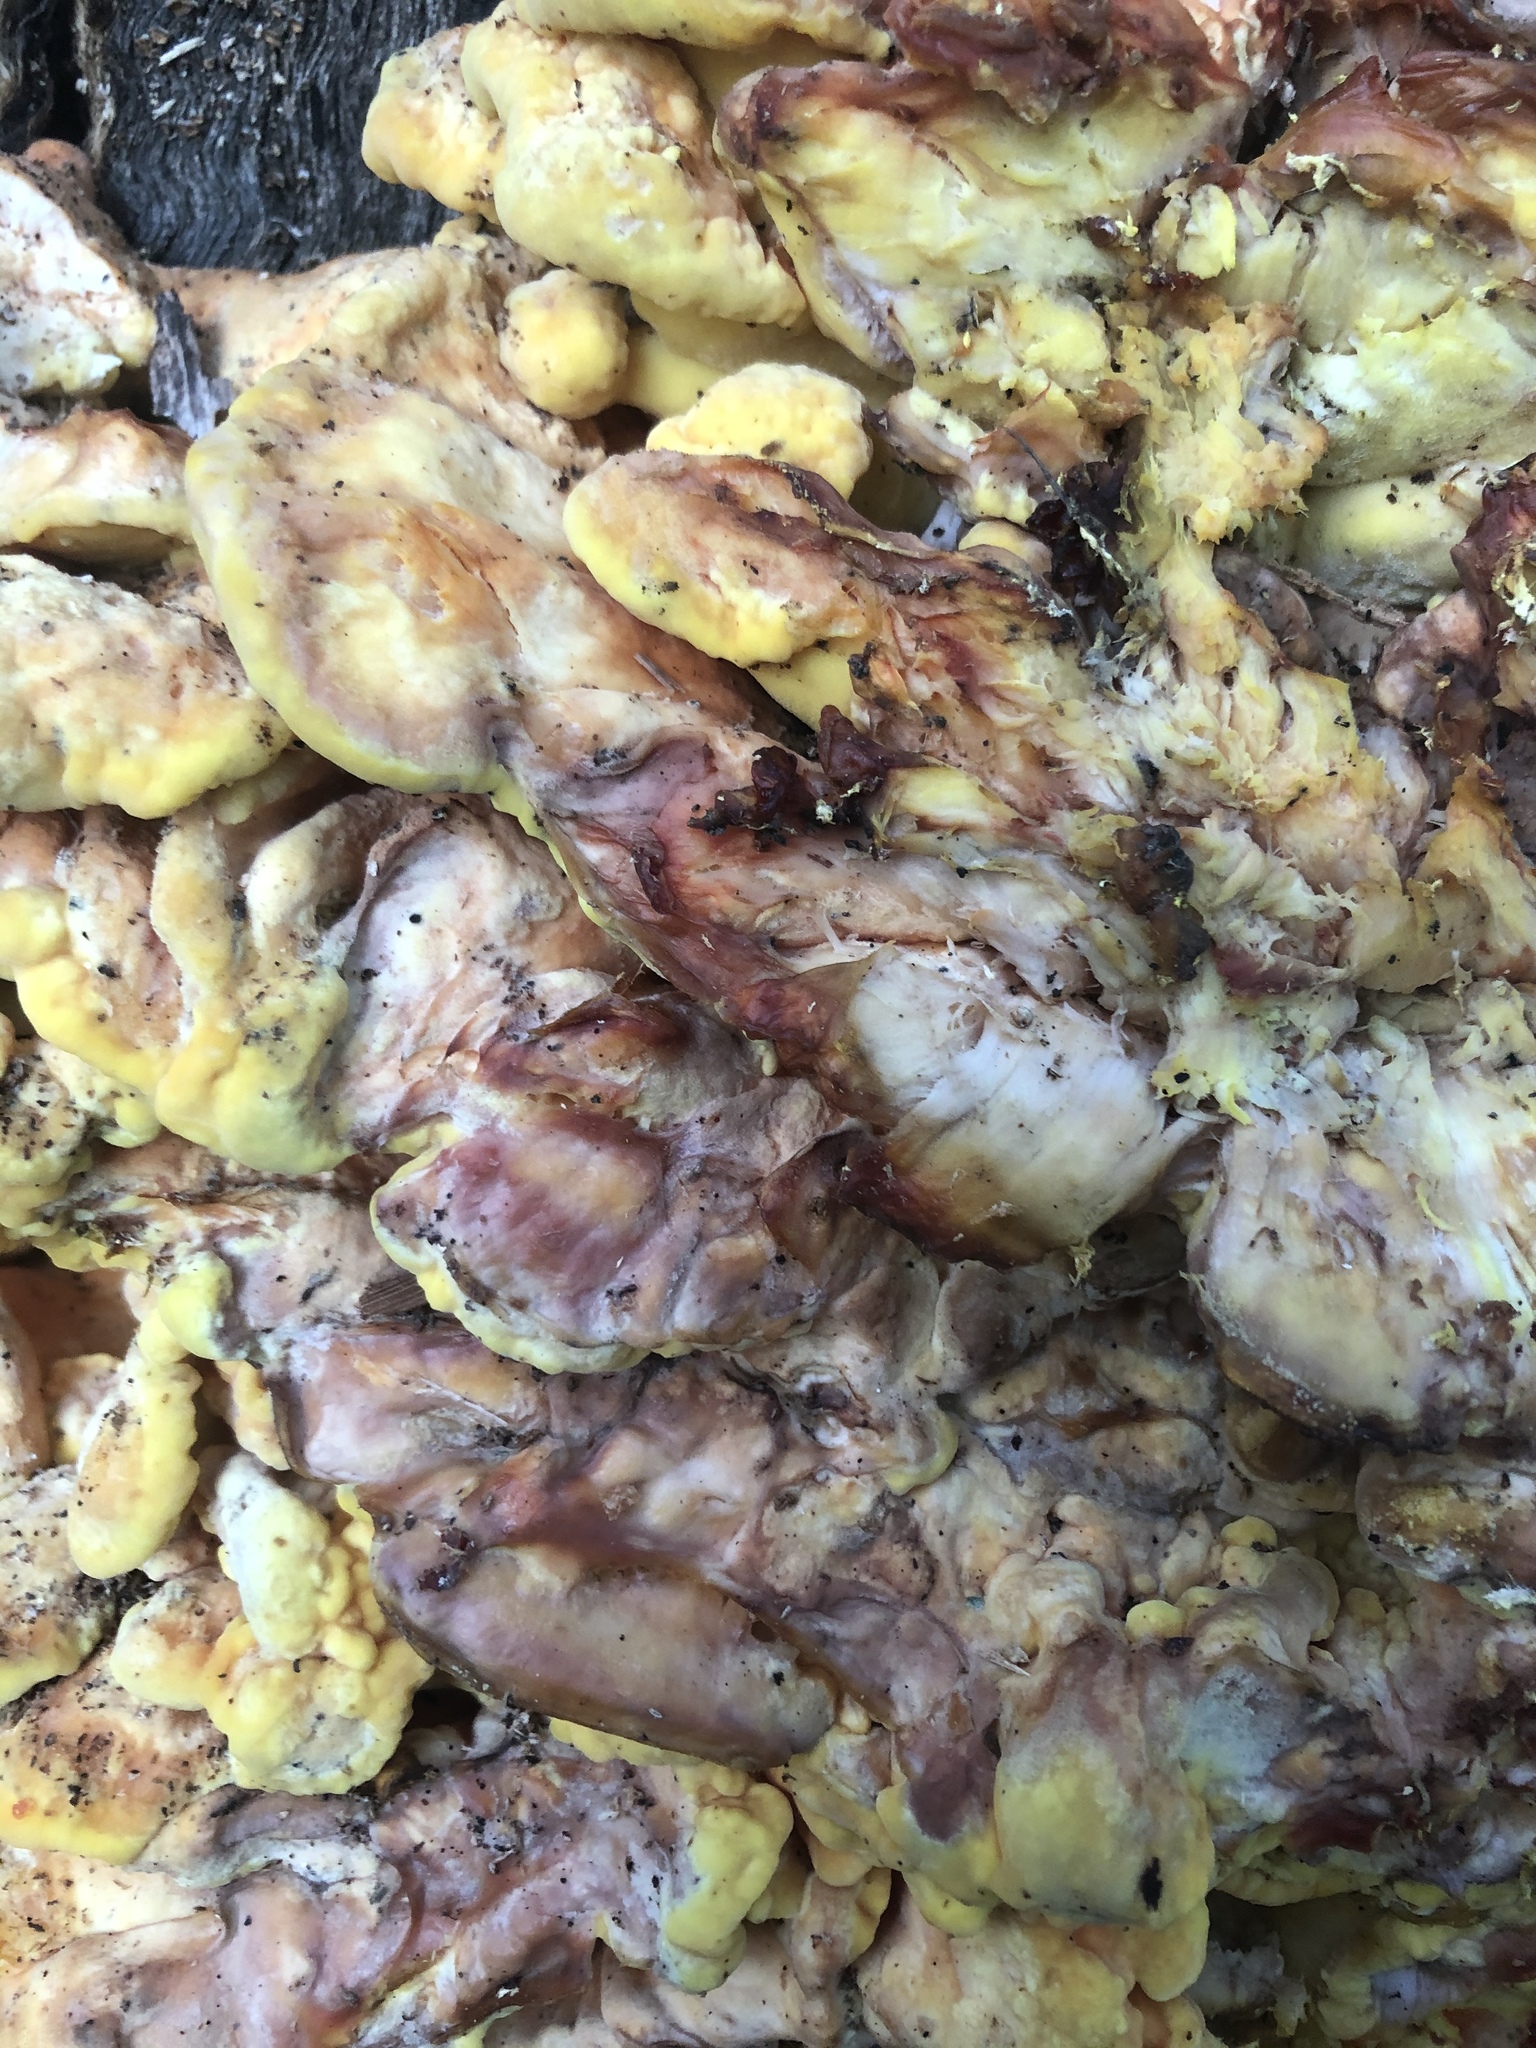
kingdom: Fungi
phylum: Basidiomycota
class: Agaricomycetes
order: Polyporales
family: Laetiporaceae
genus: Laetiporus
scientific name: Laetiporus sulphureus
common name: Chicken of the woods
